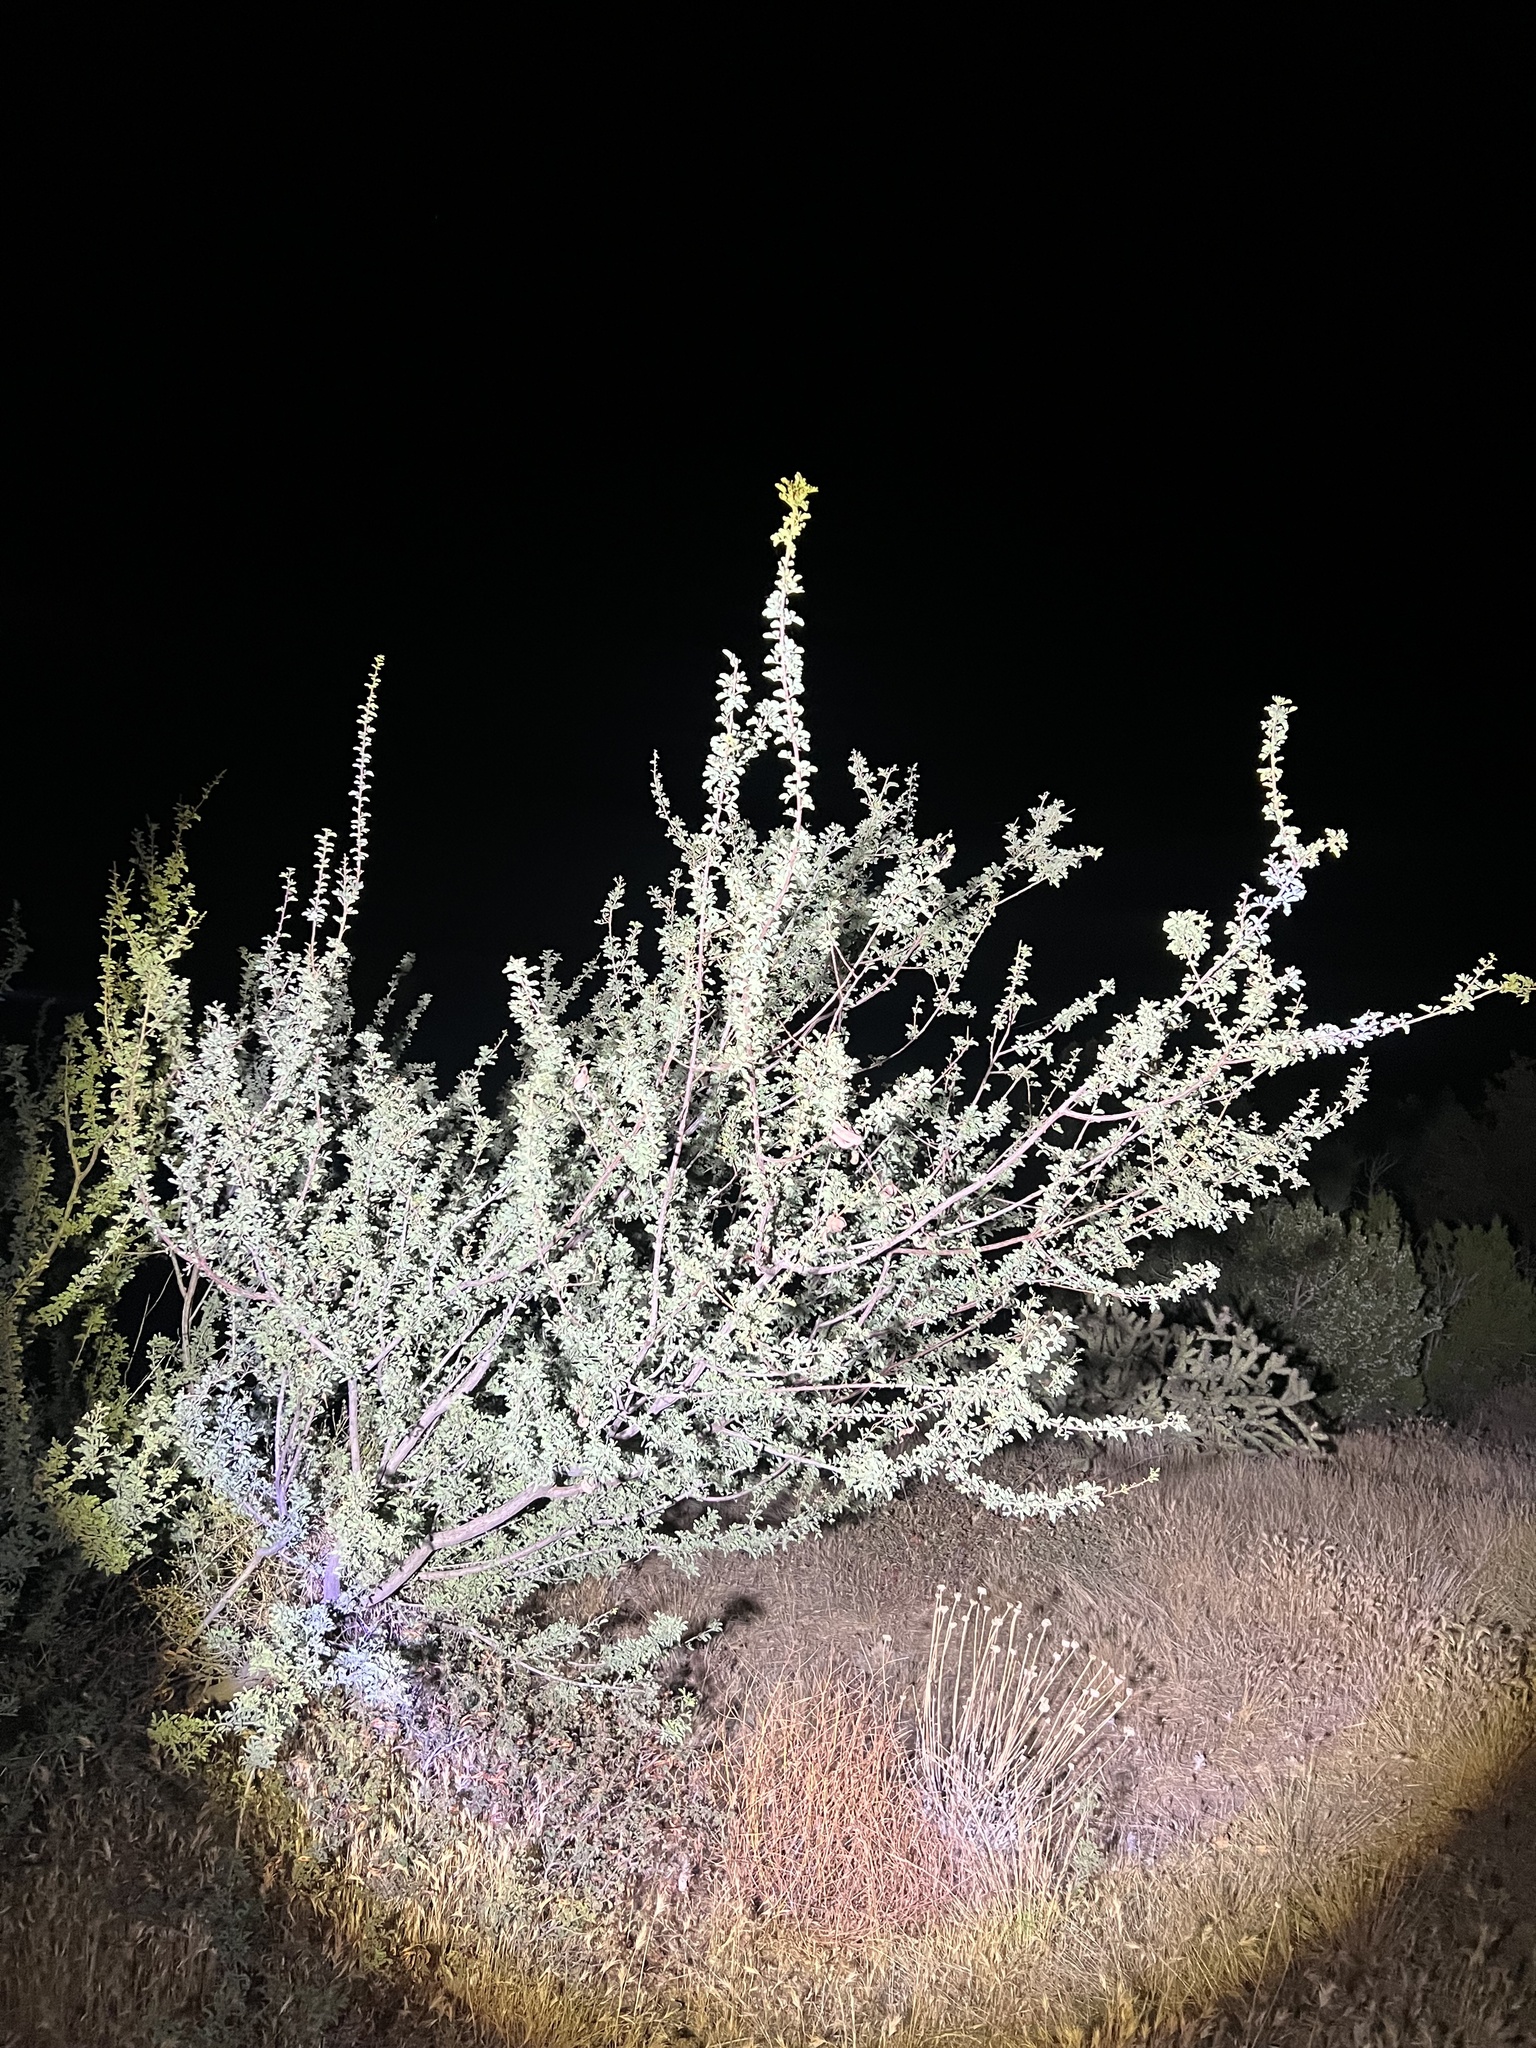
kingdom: Plantae
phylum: Tracheophyta
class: Magnoliopsida
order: Fabales
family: Fabaceae
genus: Senegalia
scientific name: Senegalia greggii
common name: Texas-mimosa
